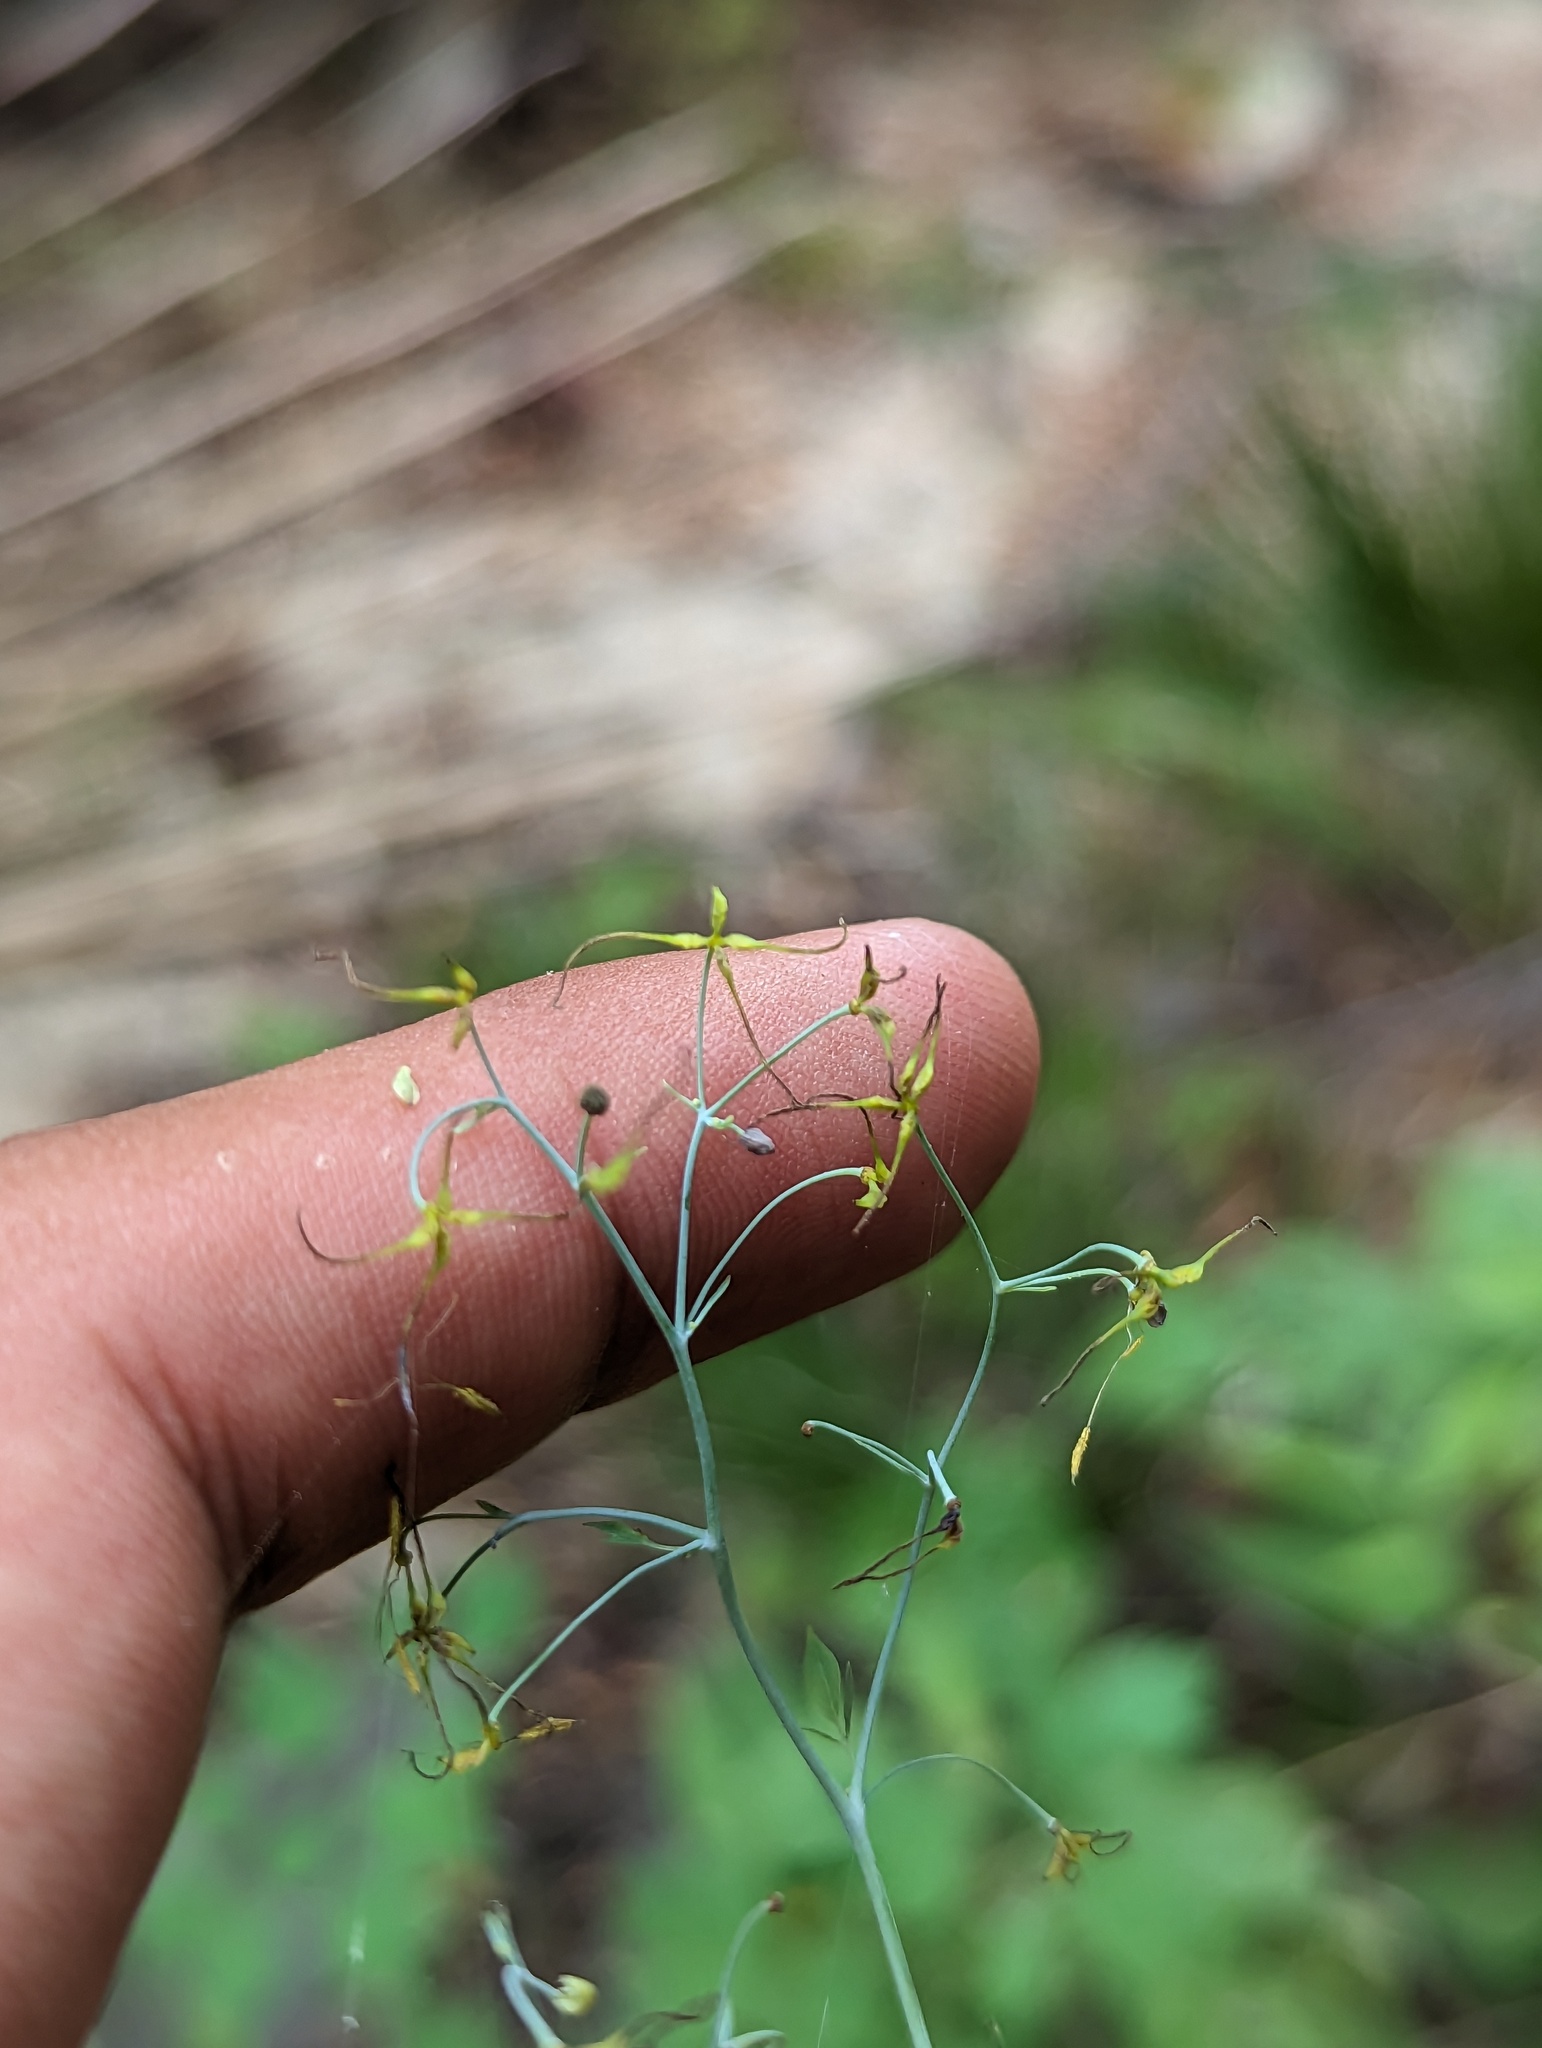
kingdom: Plantae
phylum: Tracheophyta
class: Magnoliopsida
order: Ranunculales
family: Ranunculaceae
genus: Thalictrum
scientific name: Thalictrum peninsulare
